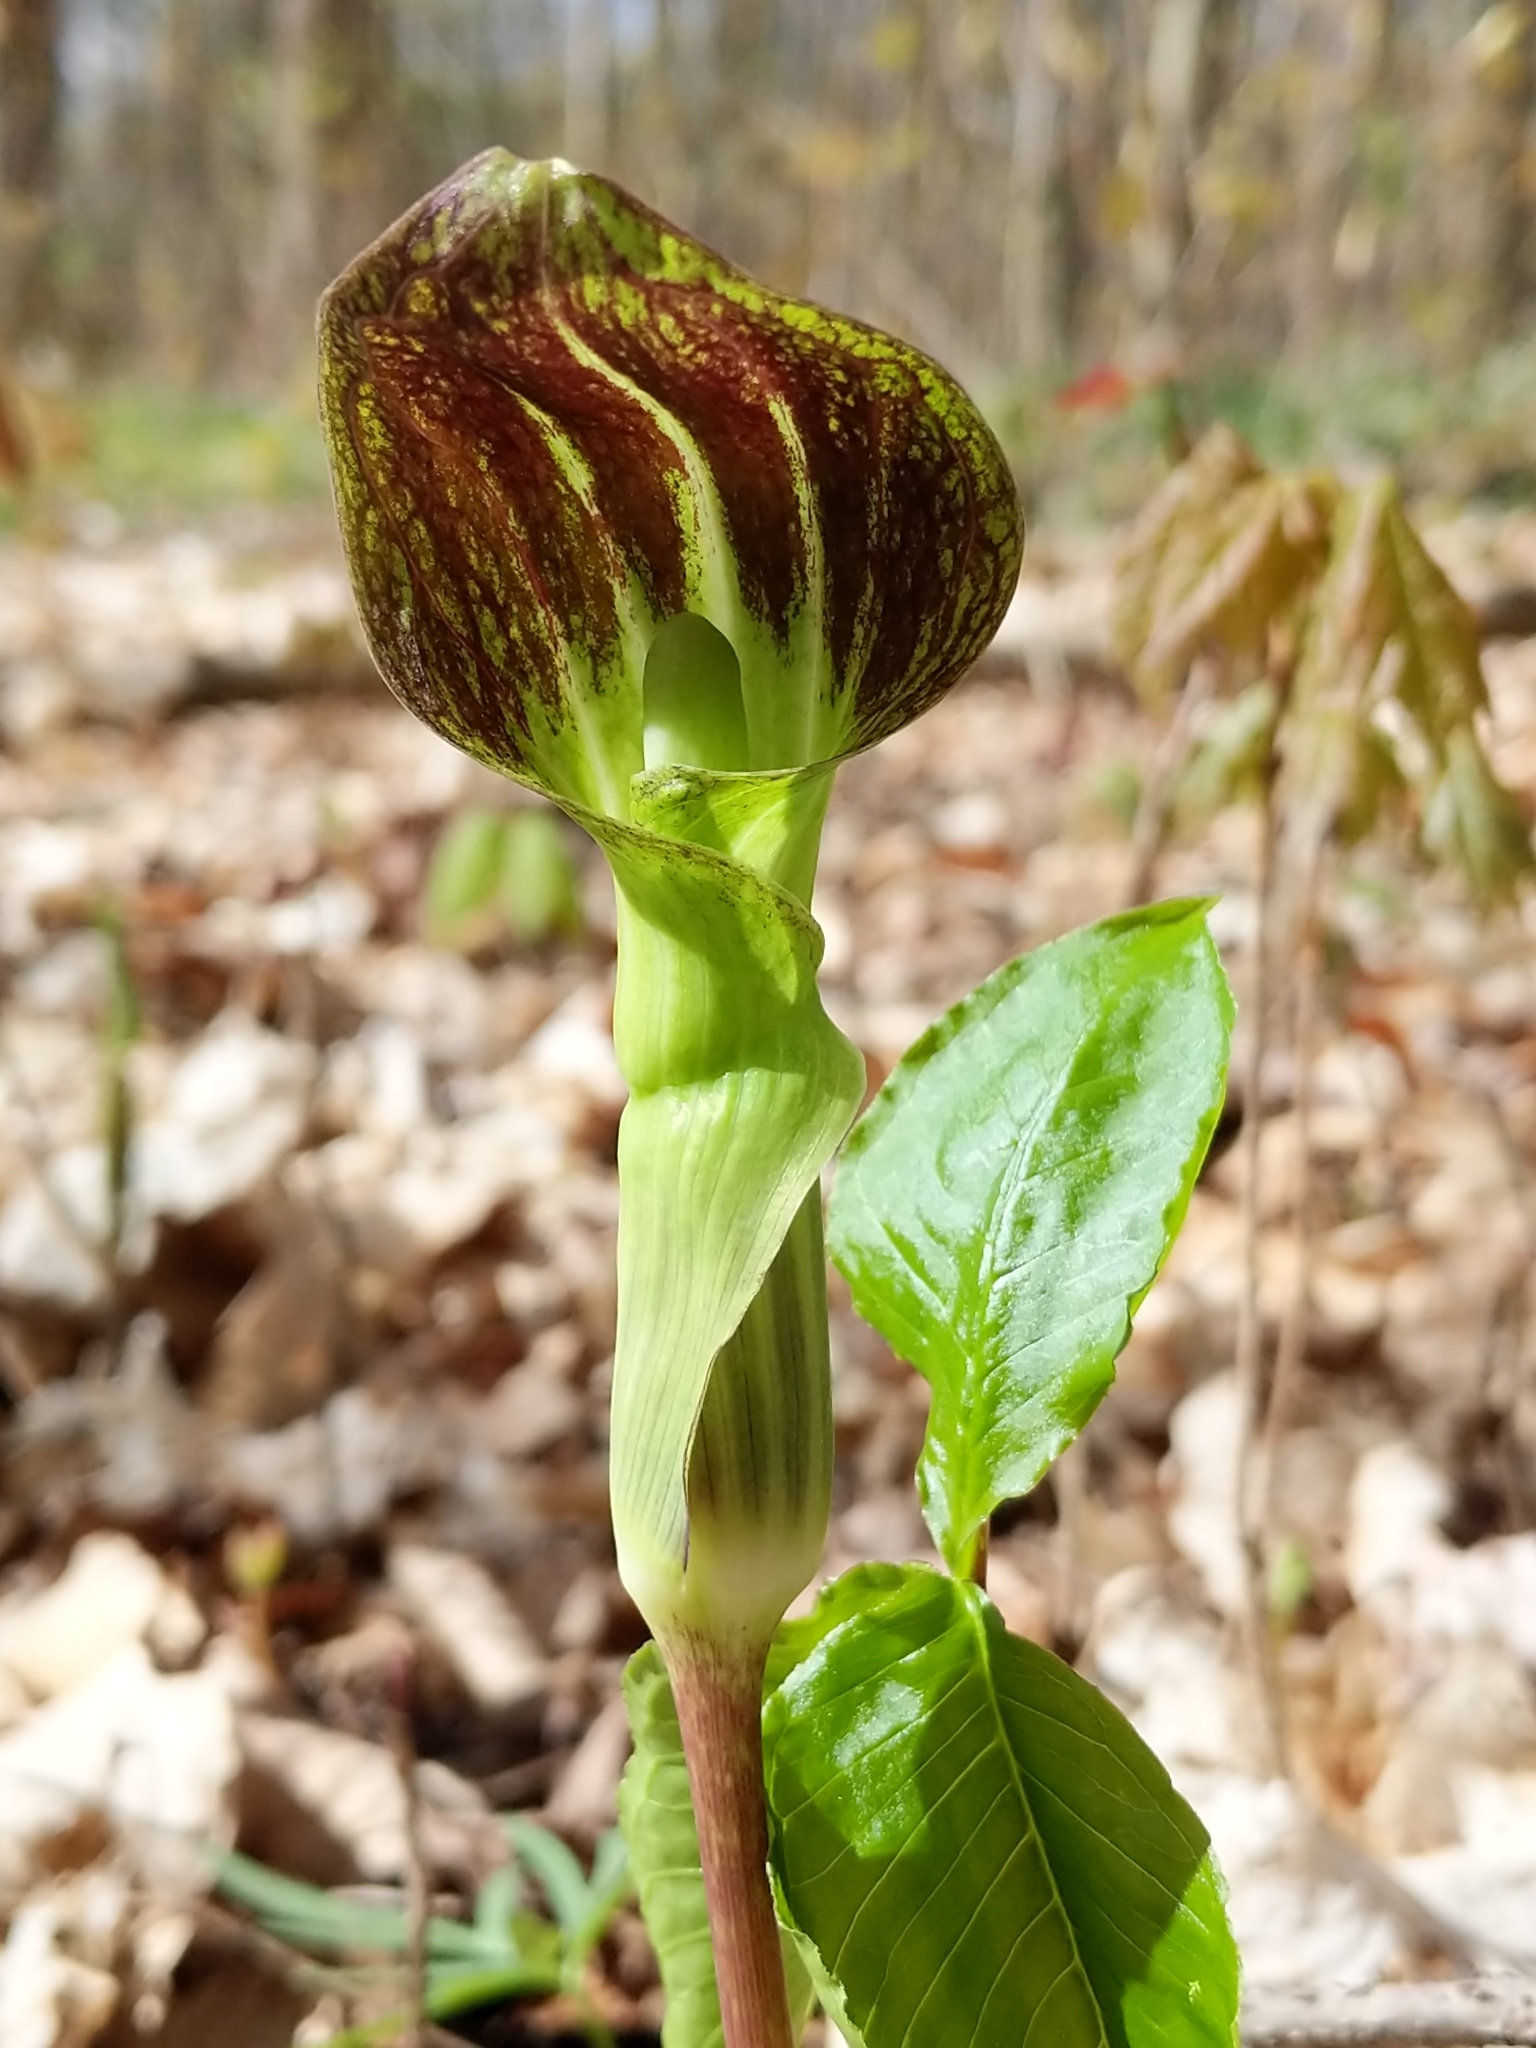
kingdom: Plantae
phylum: Tracheophyta
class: Liliopsida
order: Alismatales
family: Araceae
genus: Arisaema
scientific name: Arisaema triphyllum
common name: Jack-in-the-pulpit
